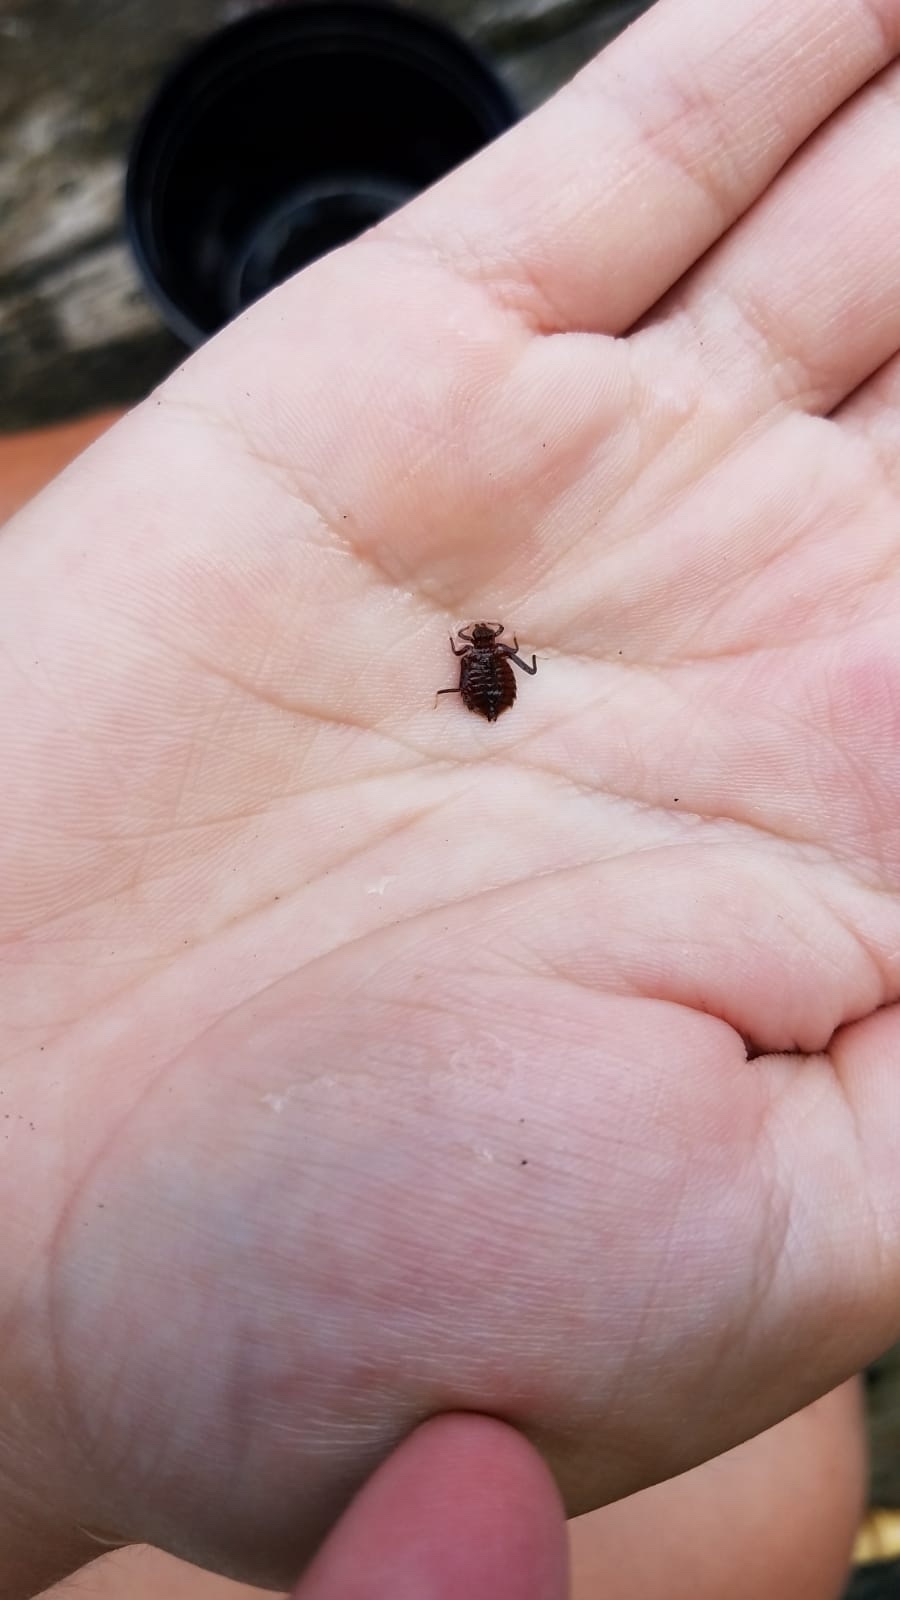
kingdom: Animalia
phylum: Arthropoda
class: Insecta
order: Odonata
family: Gomphidae
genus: Hagenius
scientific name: Hagenius brevistylus
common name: Dragonhunter
